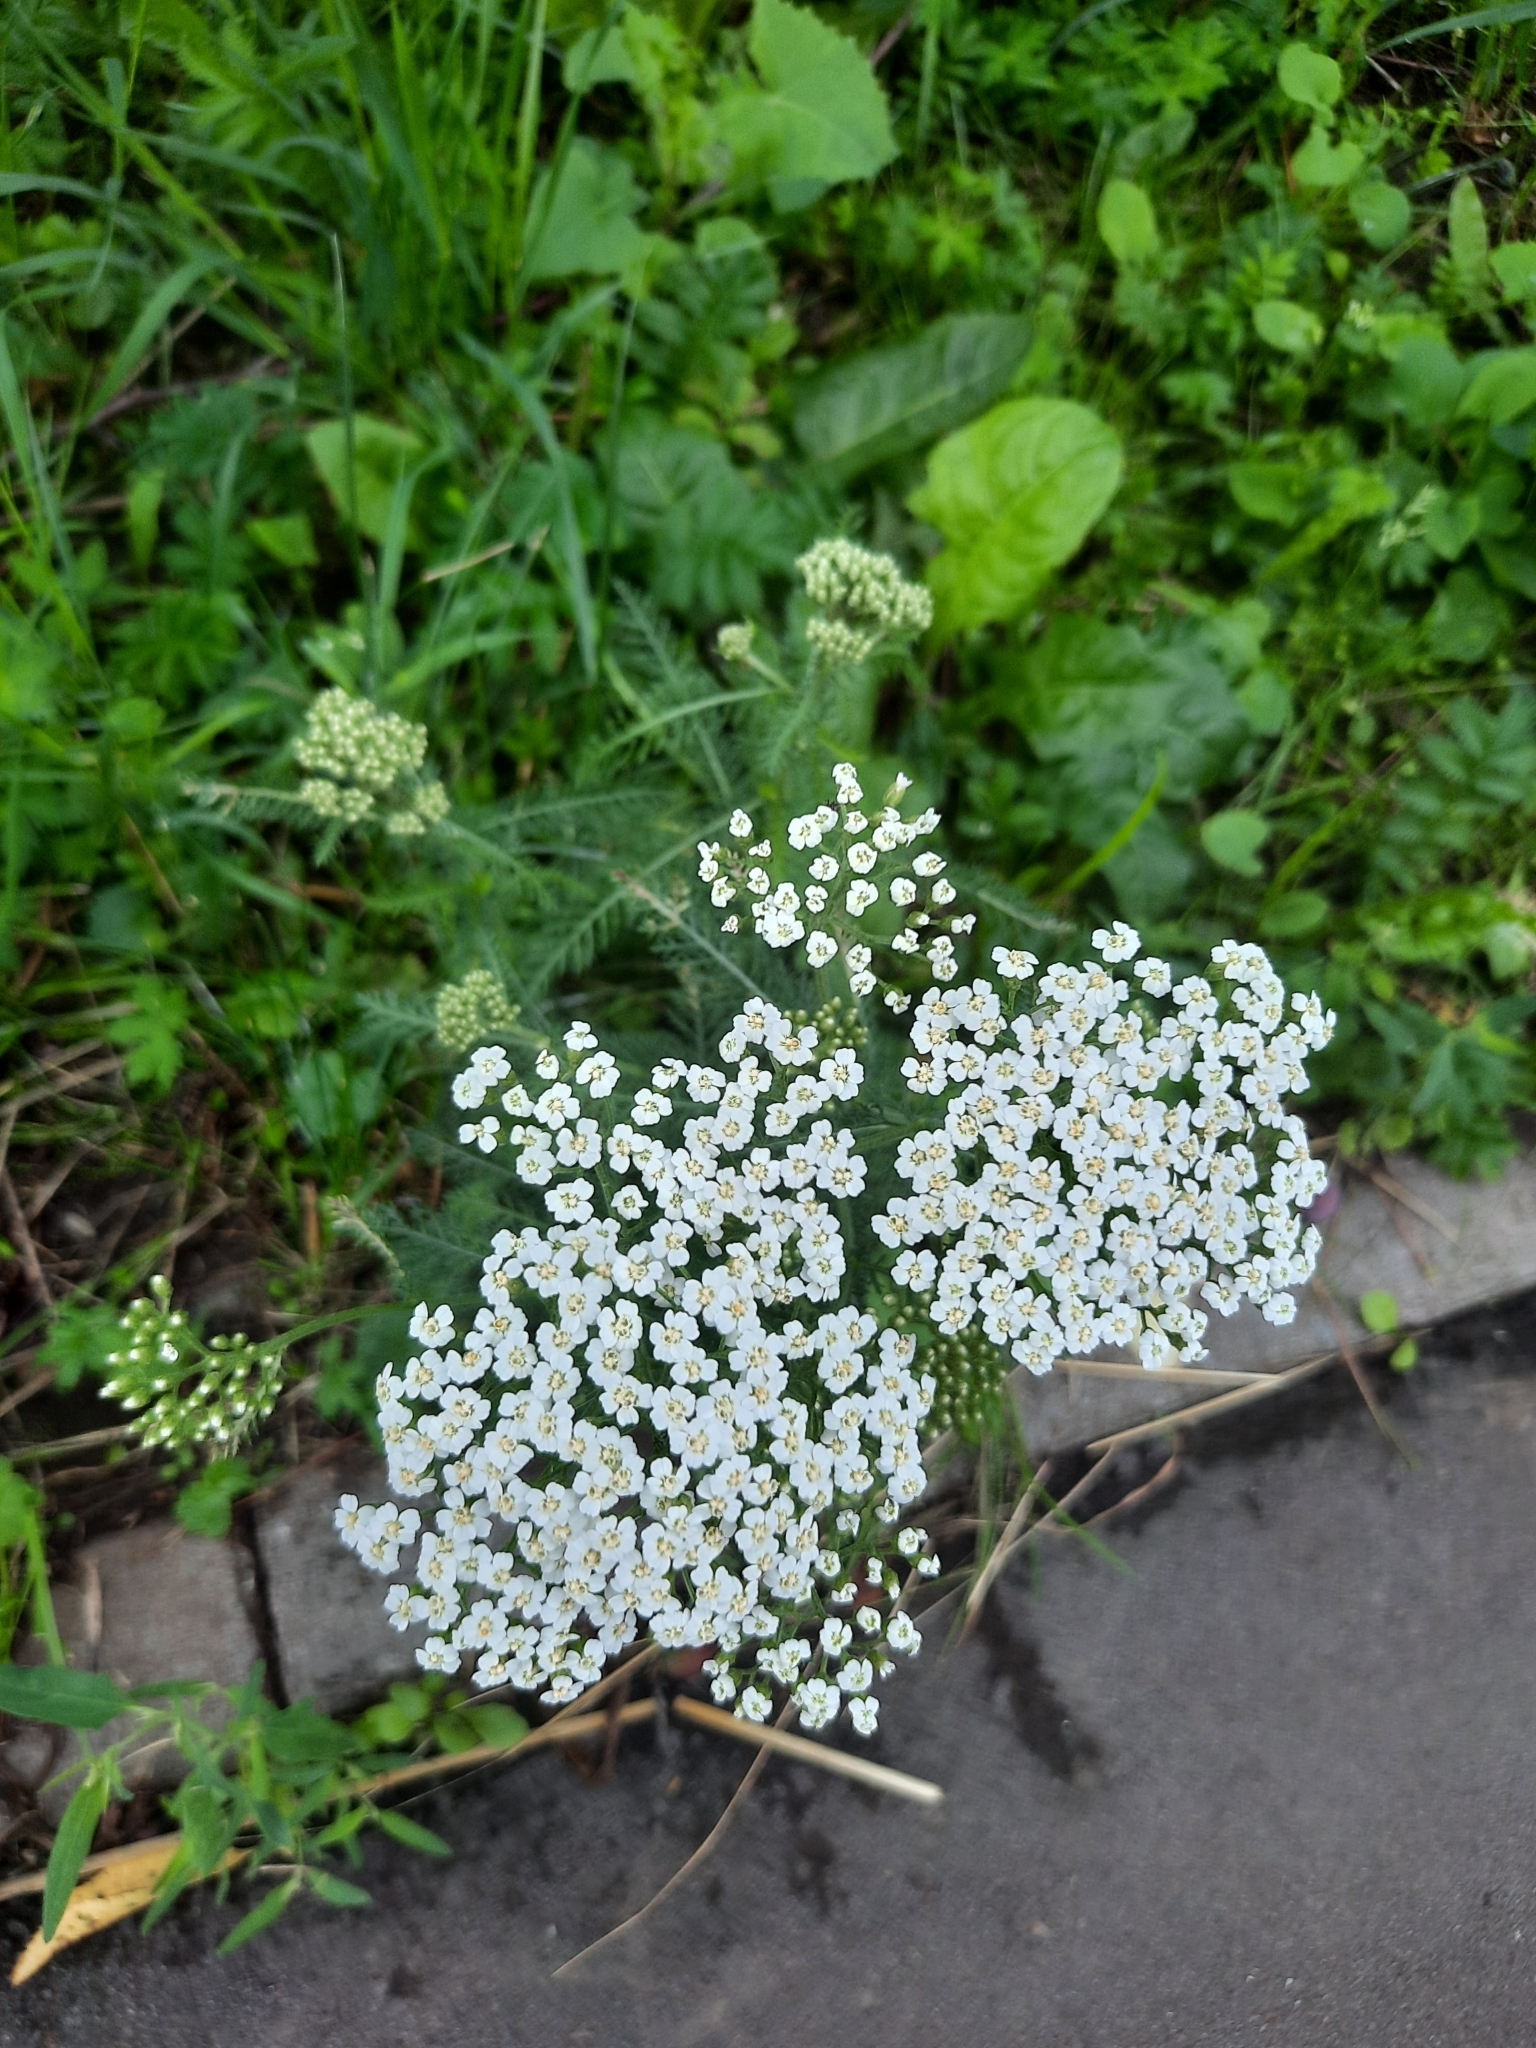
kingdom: Plantae
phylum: Tracheophyta
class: Magnoliopsida
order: Asterales
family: Asteraceae
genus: Achillea
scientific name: Achillea millefolium
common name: Yarrow
